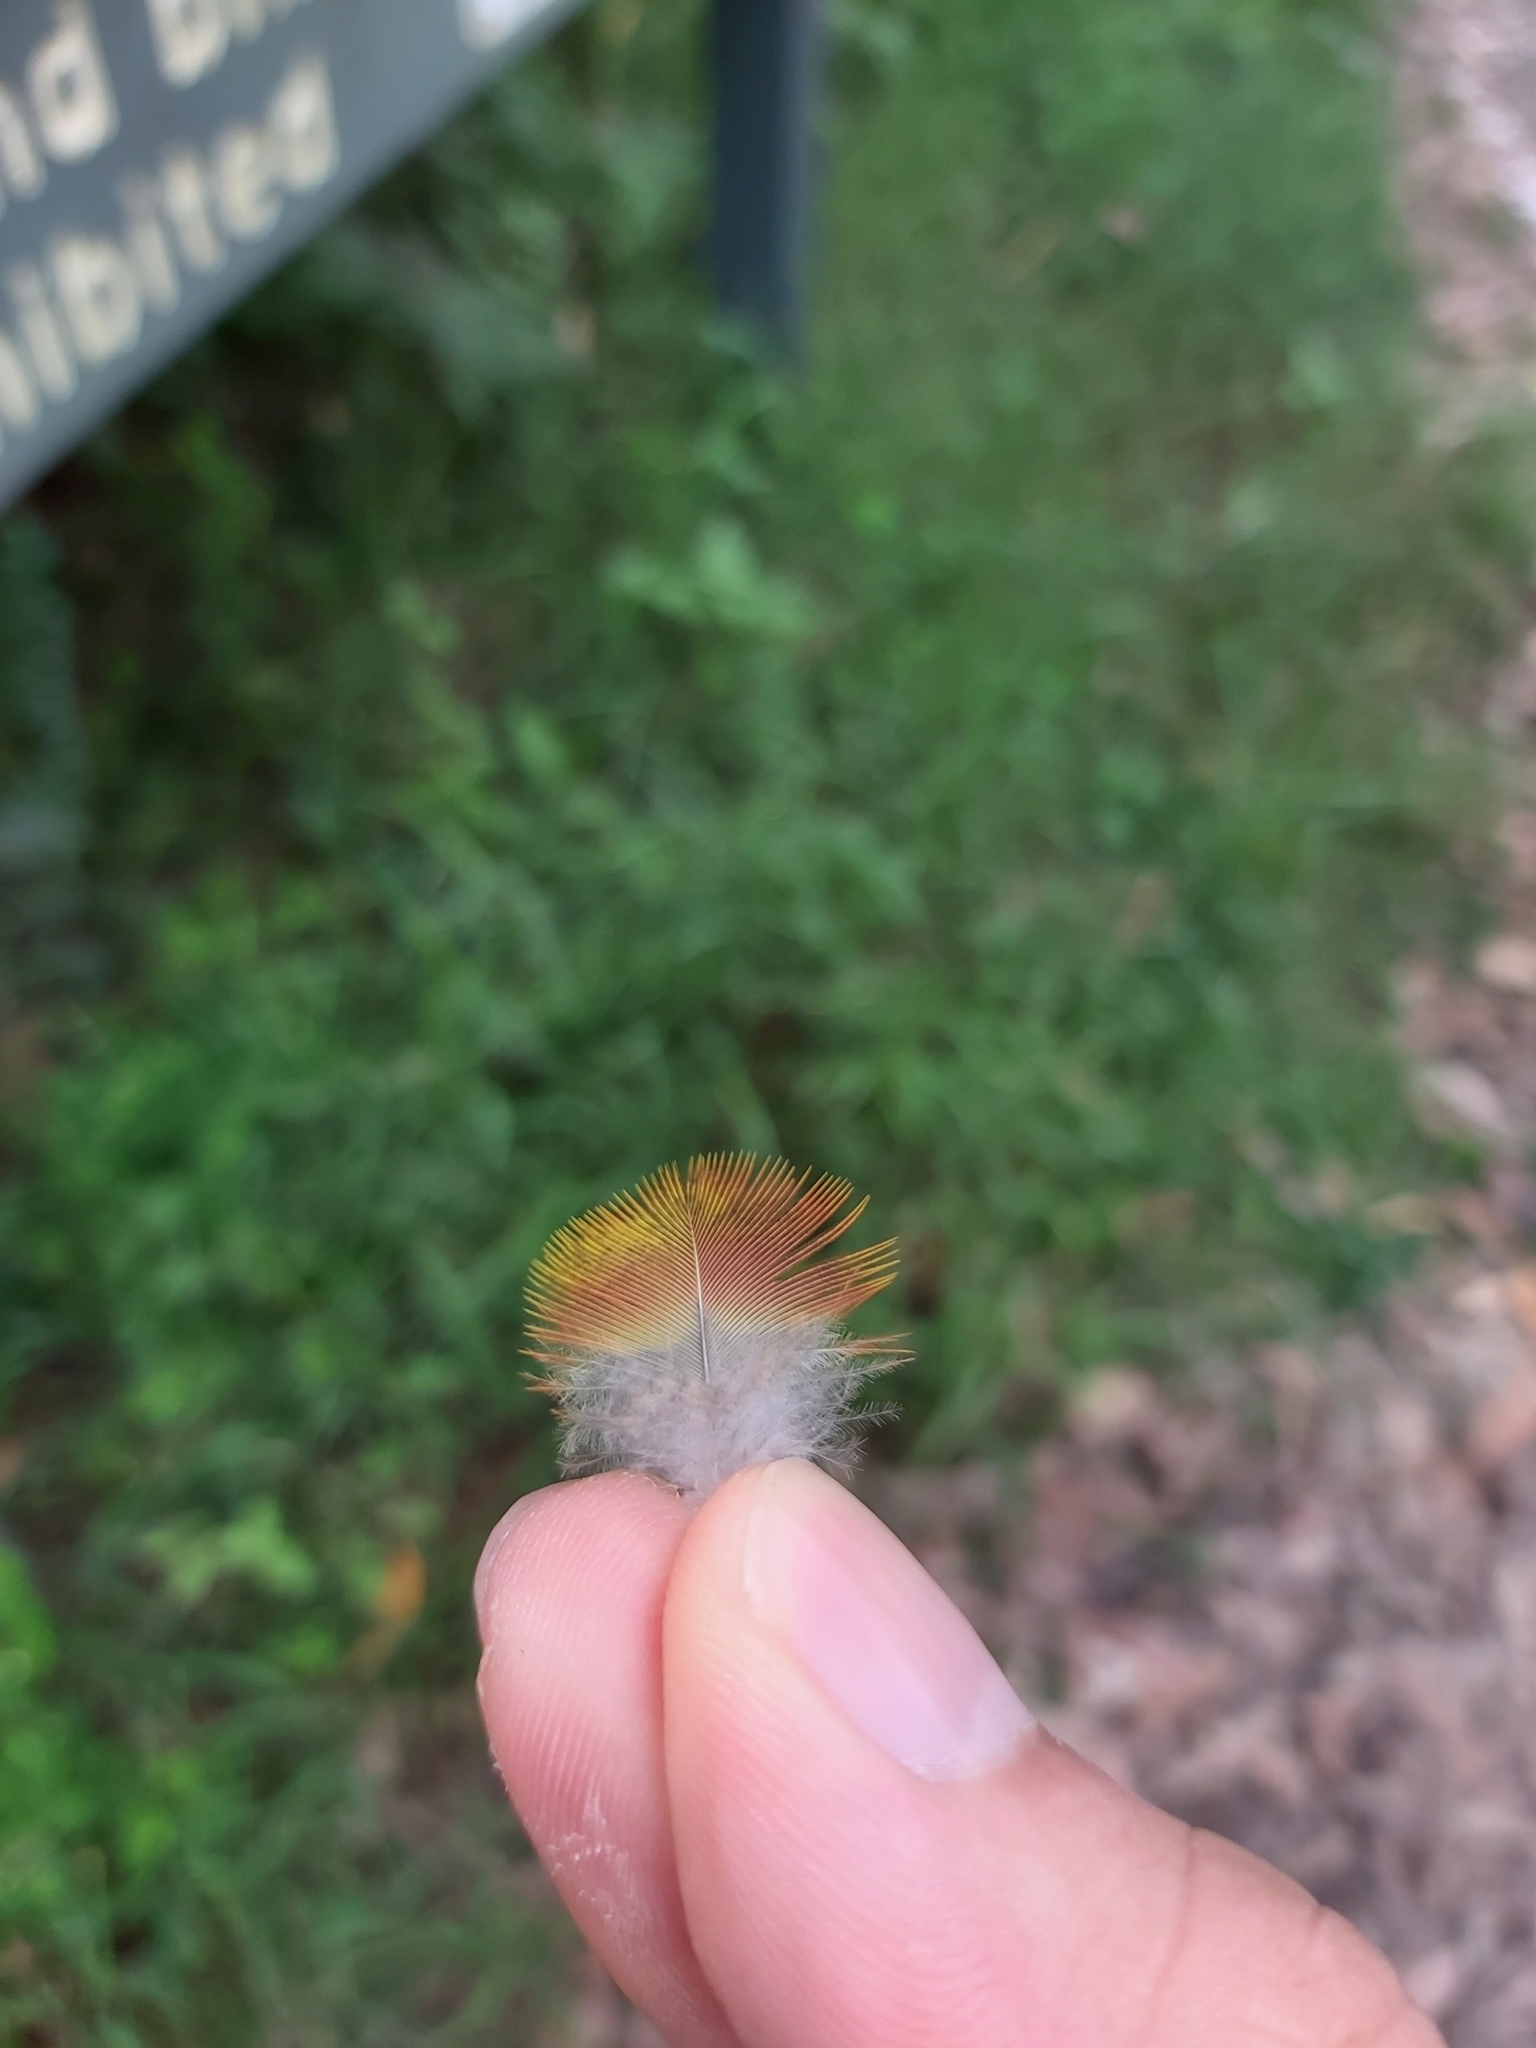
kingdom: Animalia
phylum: Chordata
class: Aves
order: Psittaciformes
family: Psittacidae
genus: Trichoglossus
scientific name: Trichoglossus haematodus
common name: Coconut lorikeet
